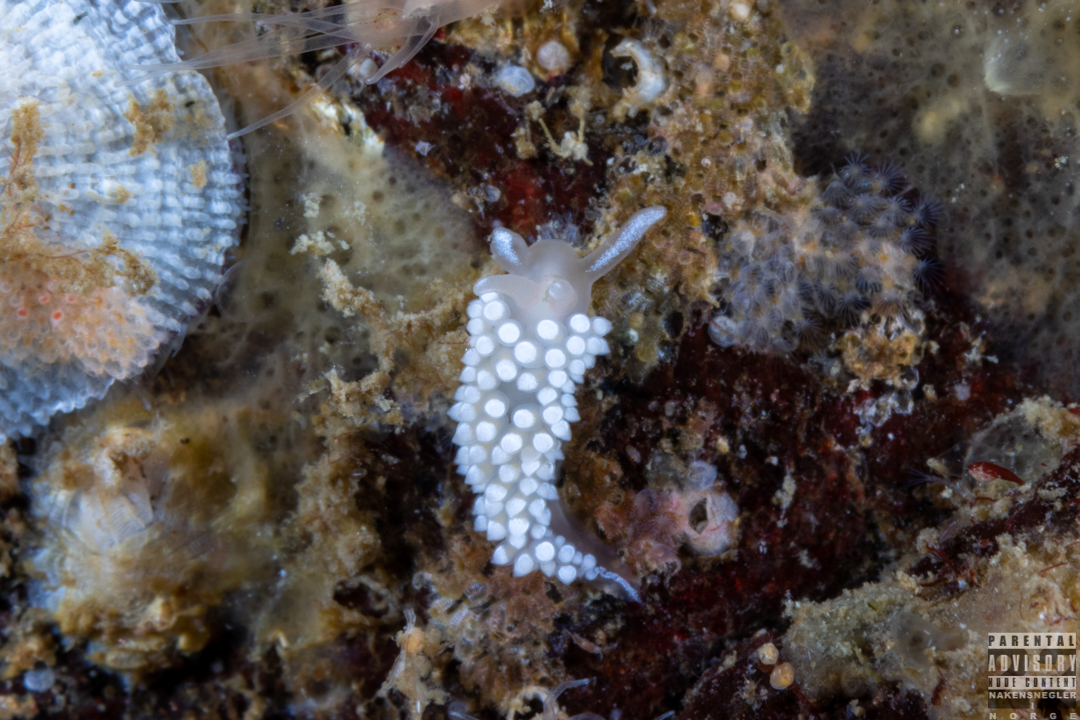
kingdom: Animalia
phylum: Mollusca
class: Gastropoda
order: Nudibranchia
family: Coryphellidae
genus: Coryphella
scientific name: Coryphella verrucosa
